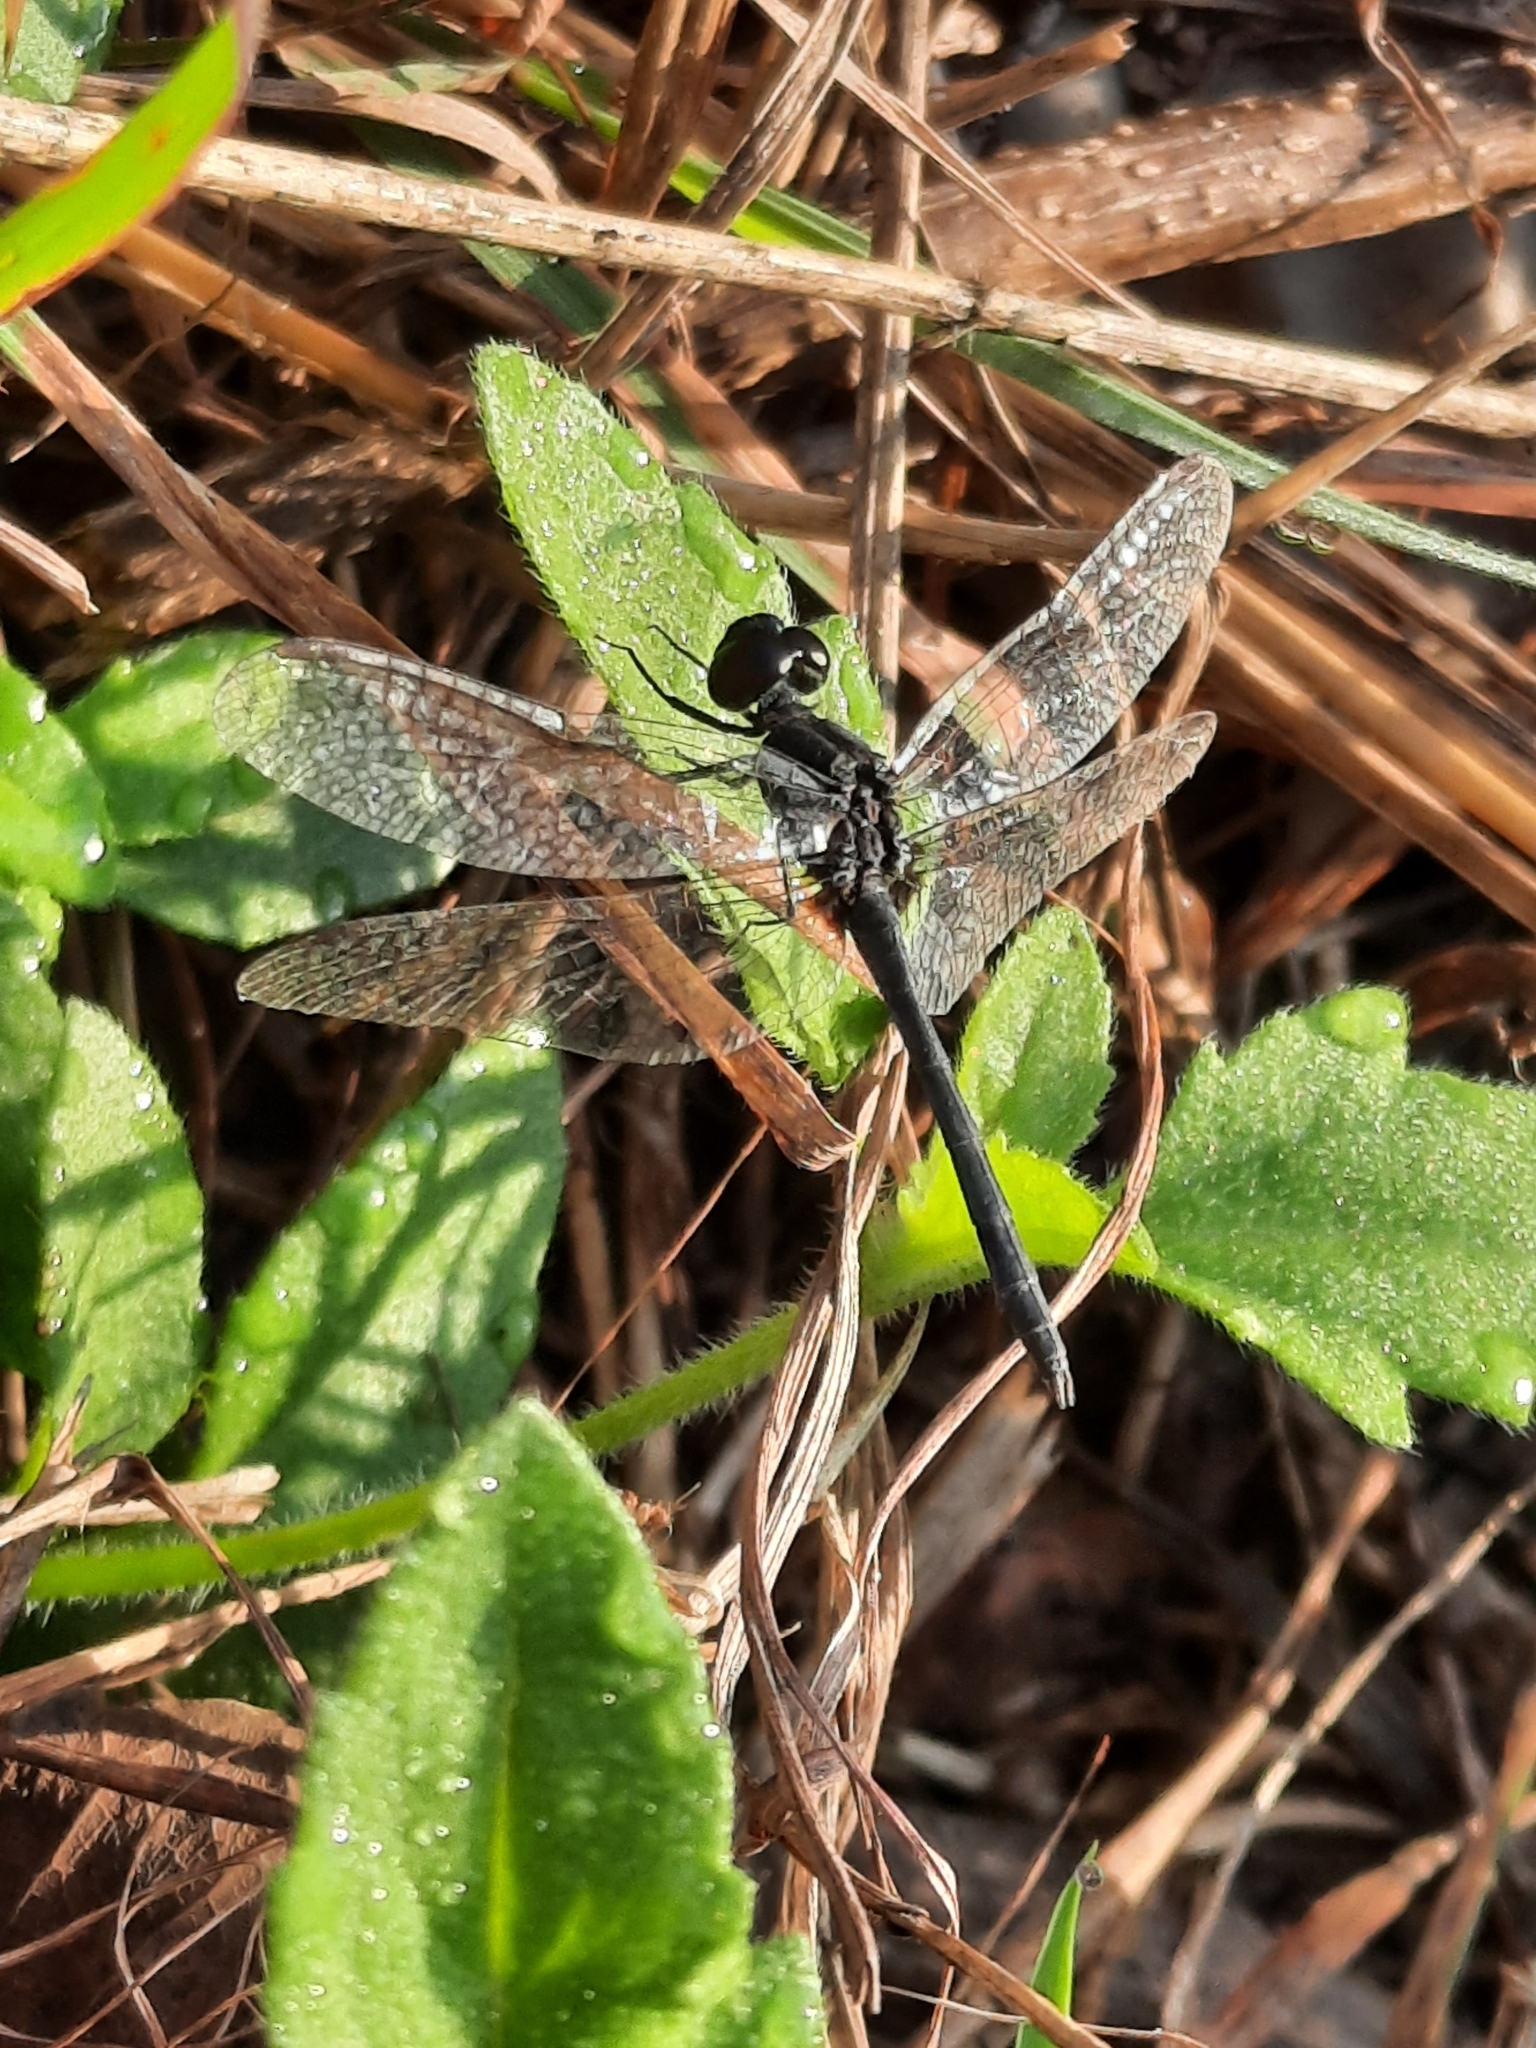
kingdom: Animalia
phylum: Arthropoda
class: Insecta
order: Odonata
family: Libellulidae
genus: Diplacodes
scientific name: Diplacodes lefebvrii
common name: Black percher
